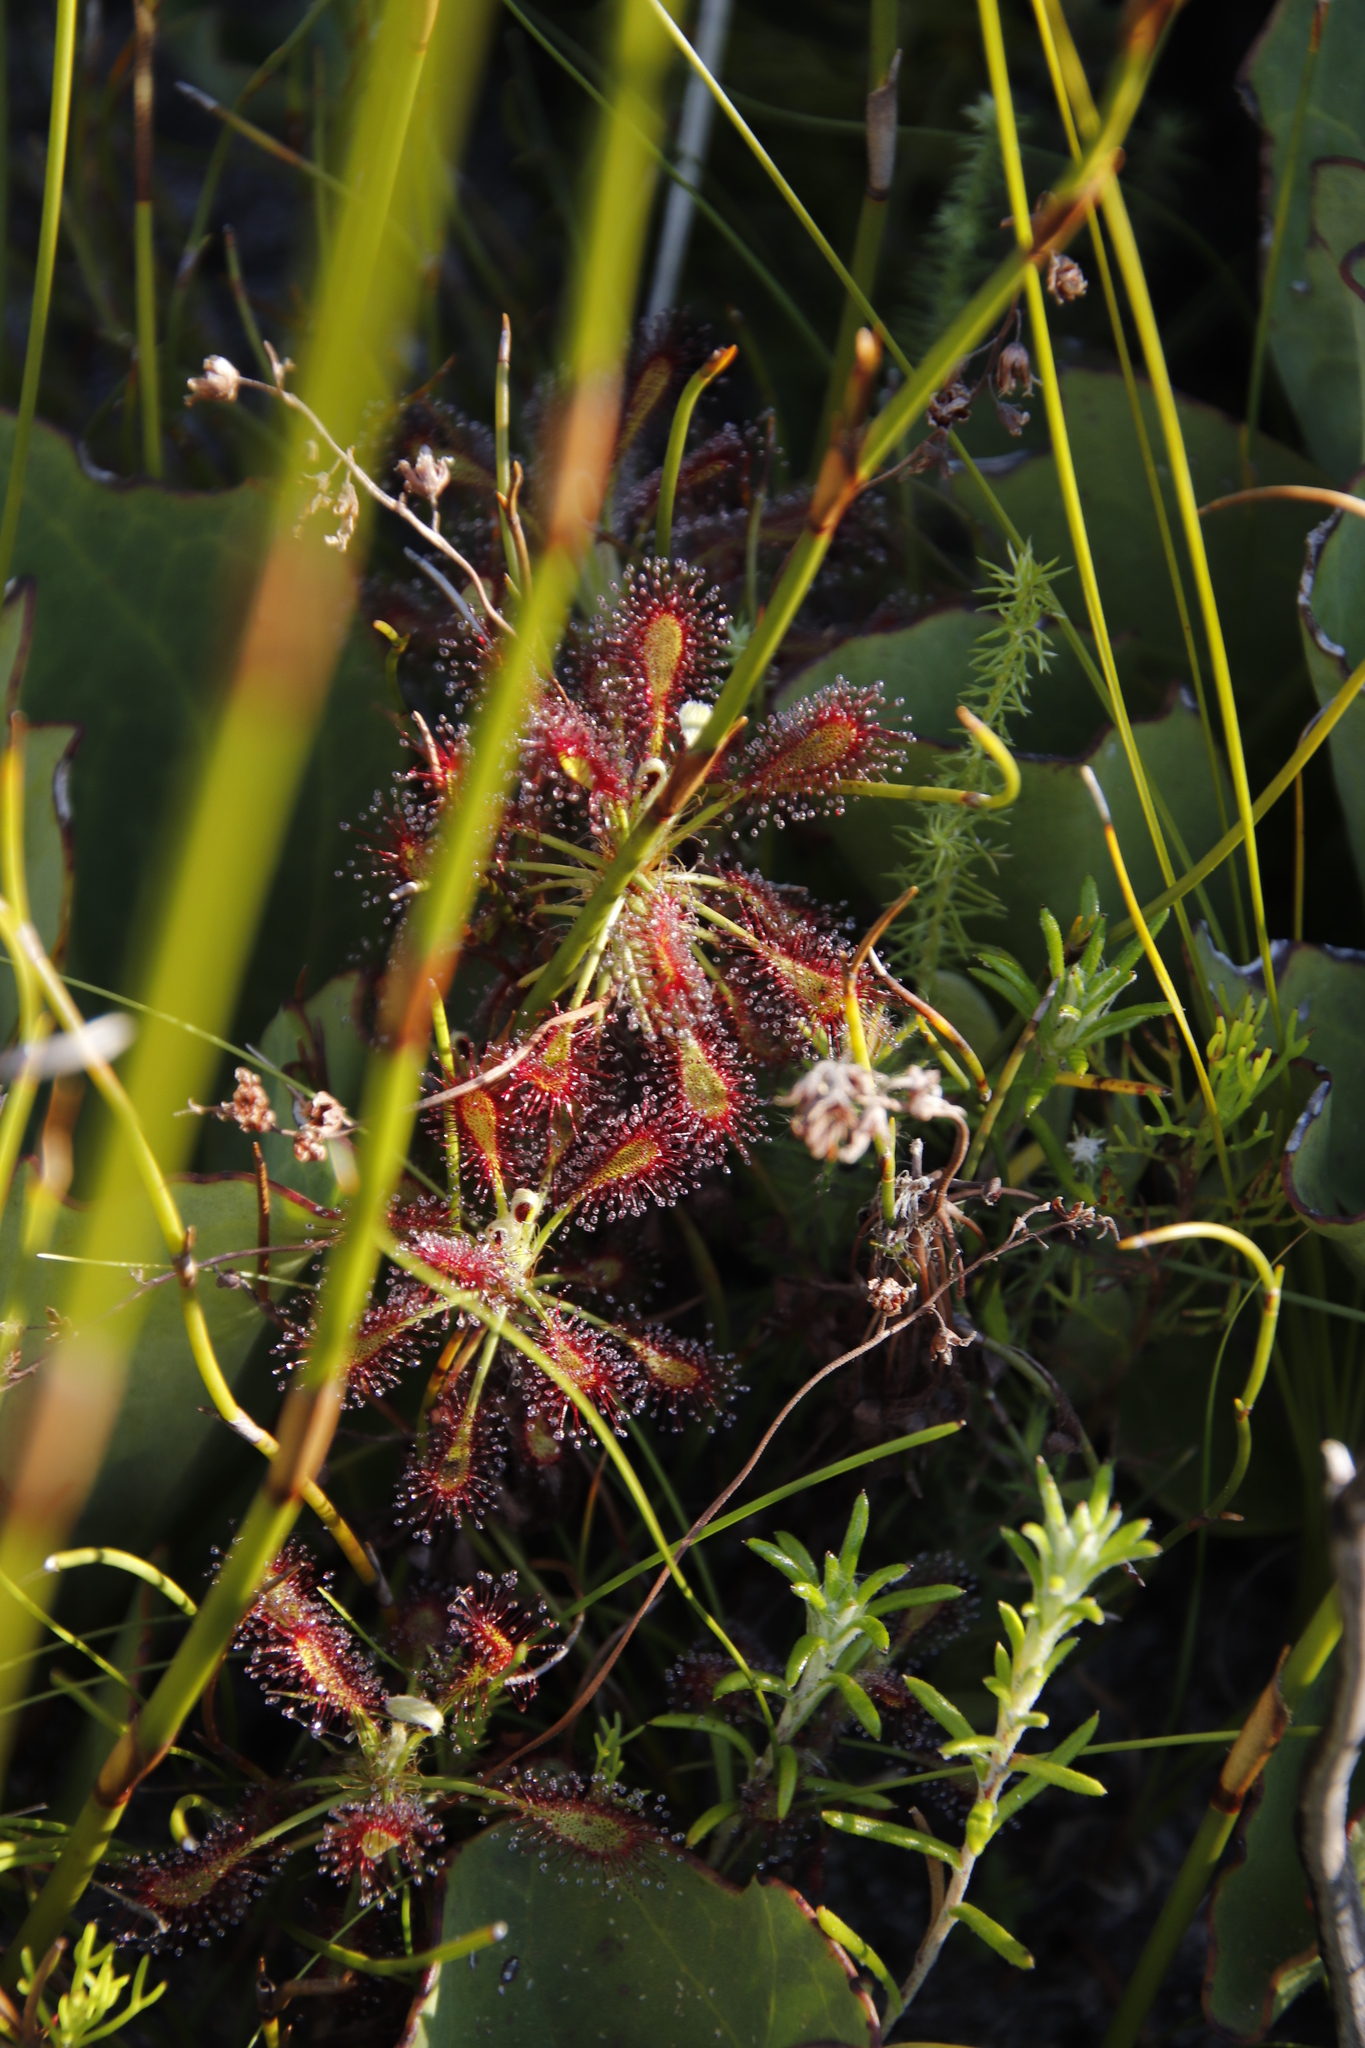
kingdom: Plantae
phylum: Tracheophyta
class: Magnoliopsida
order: Caryophyllales
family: Droseraceae
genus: Drosera
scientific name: Drosera glabripes
